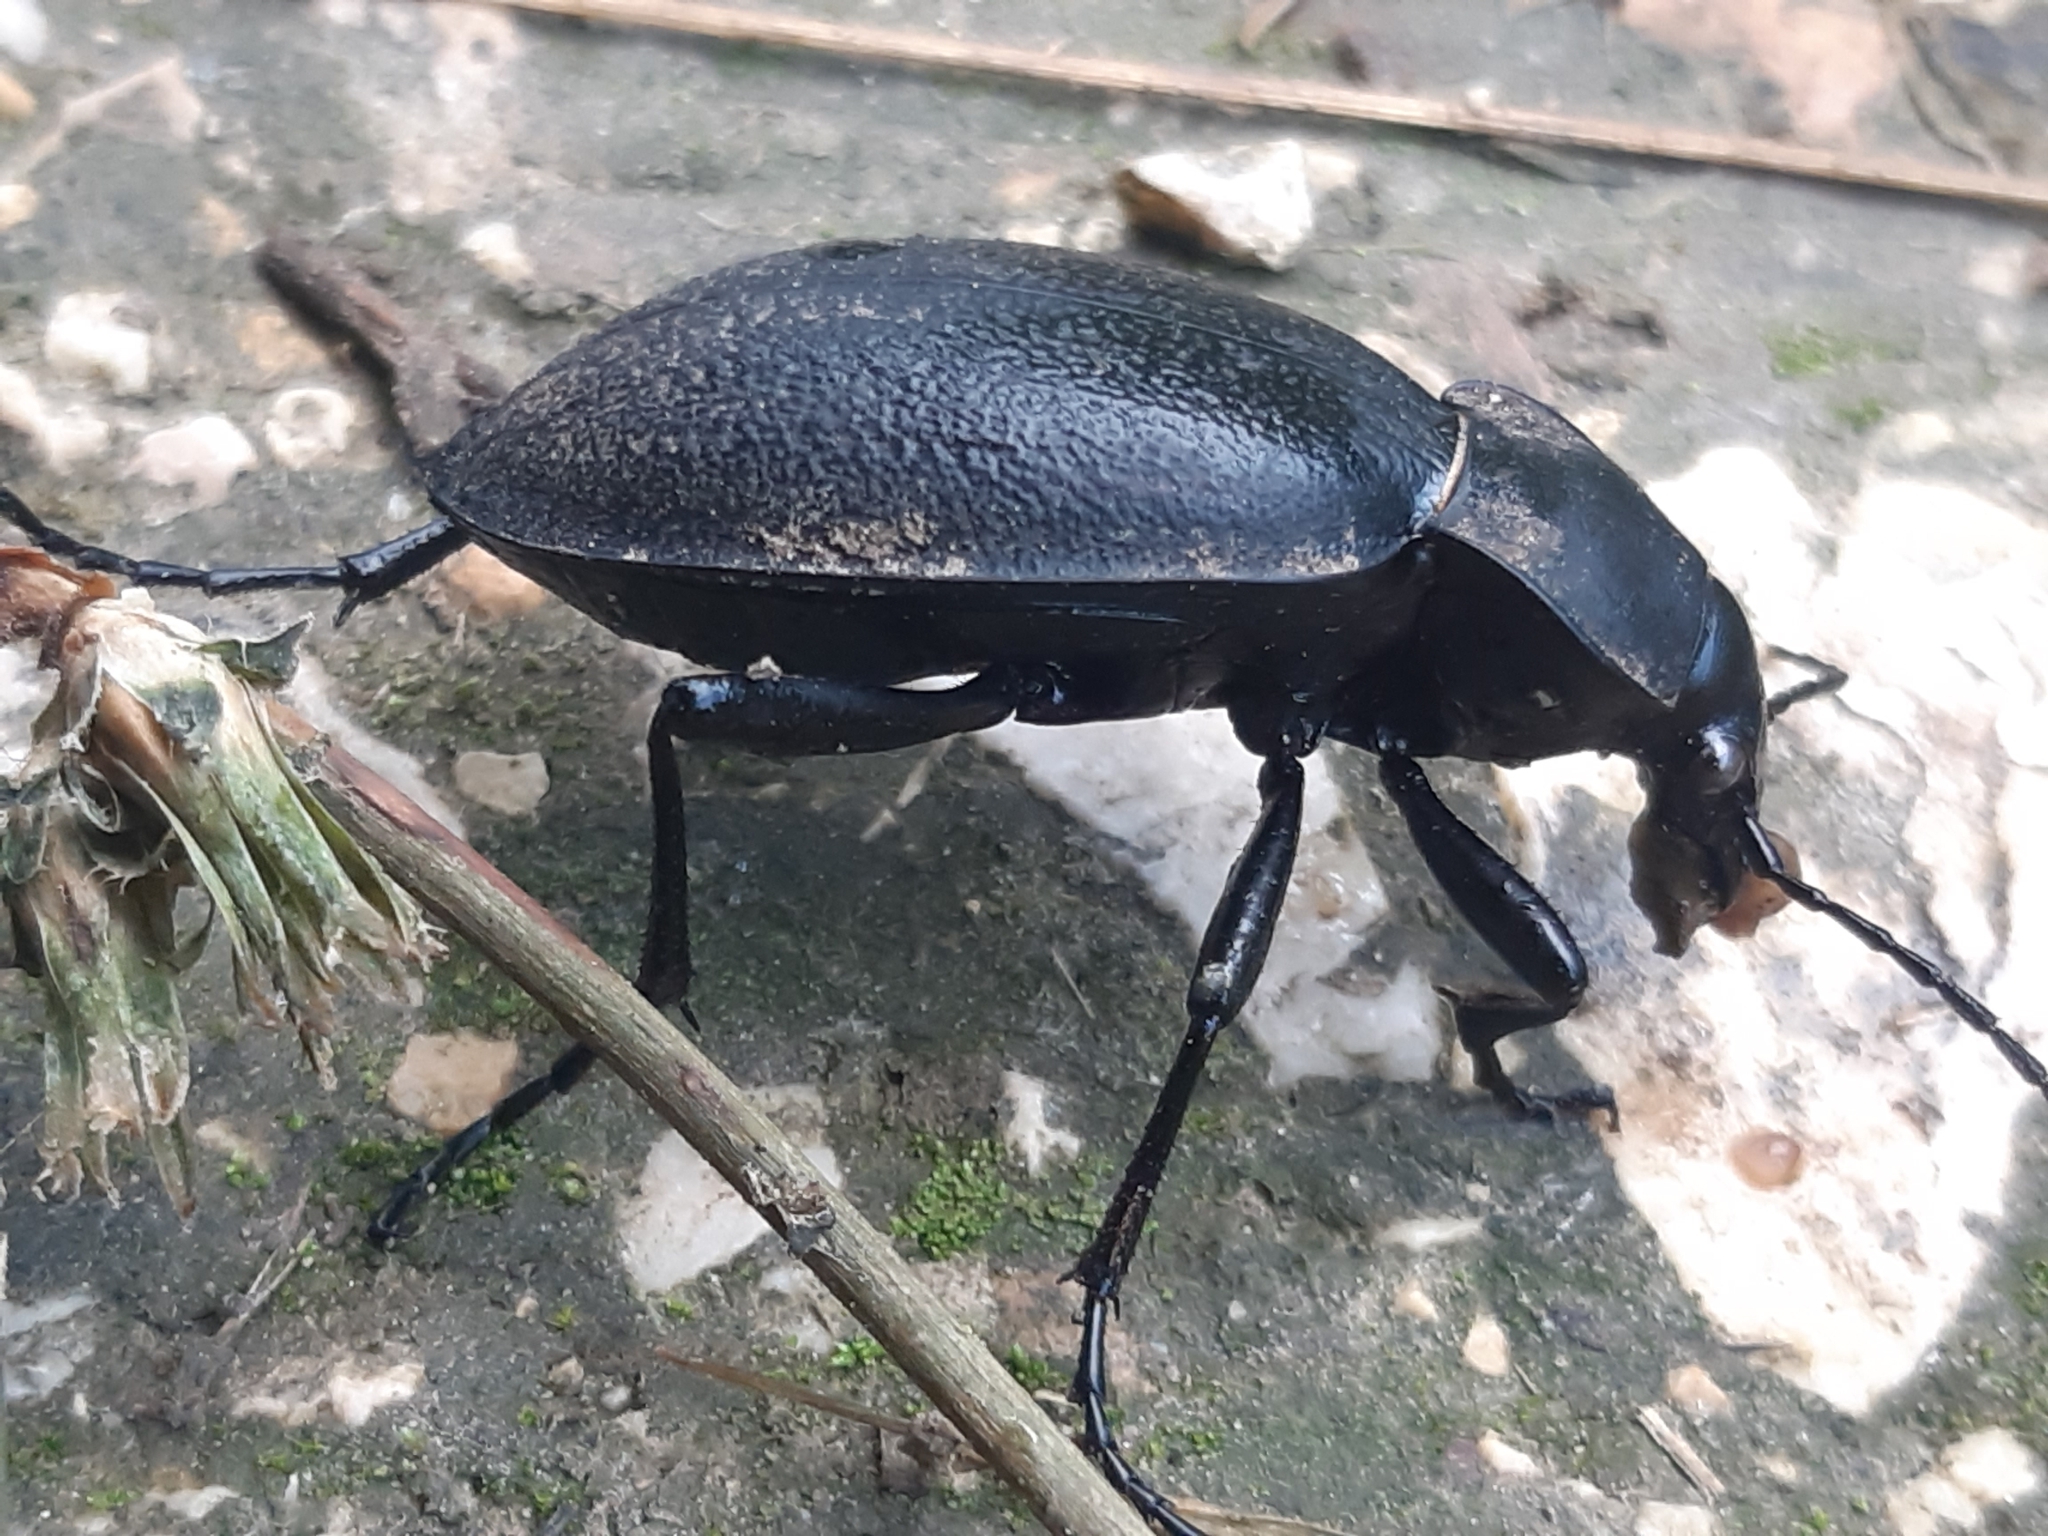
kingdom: Animalia
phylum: Arthropoda
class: Insecta
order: Coleoptera
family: Carabidae
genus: Carabus
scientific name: Carabus coriaceus
